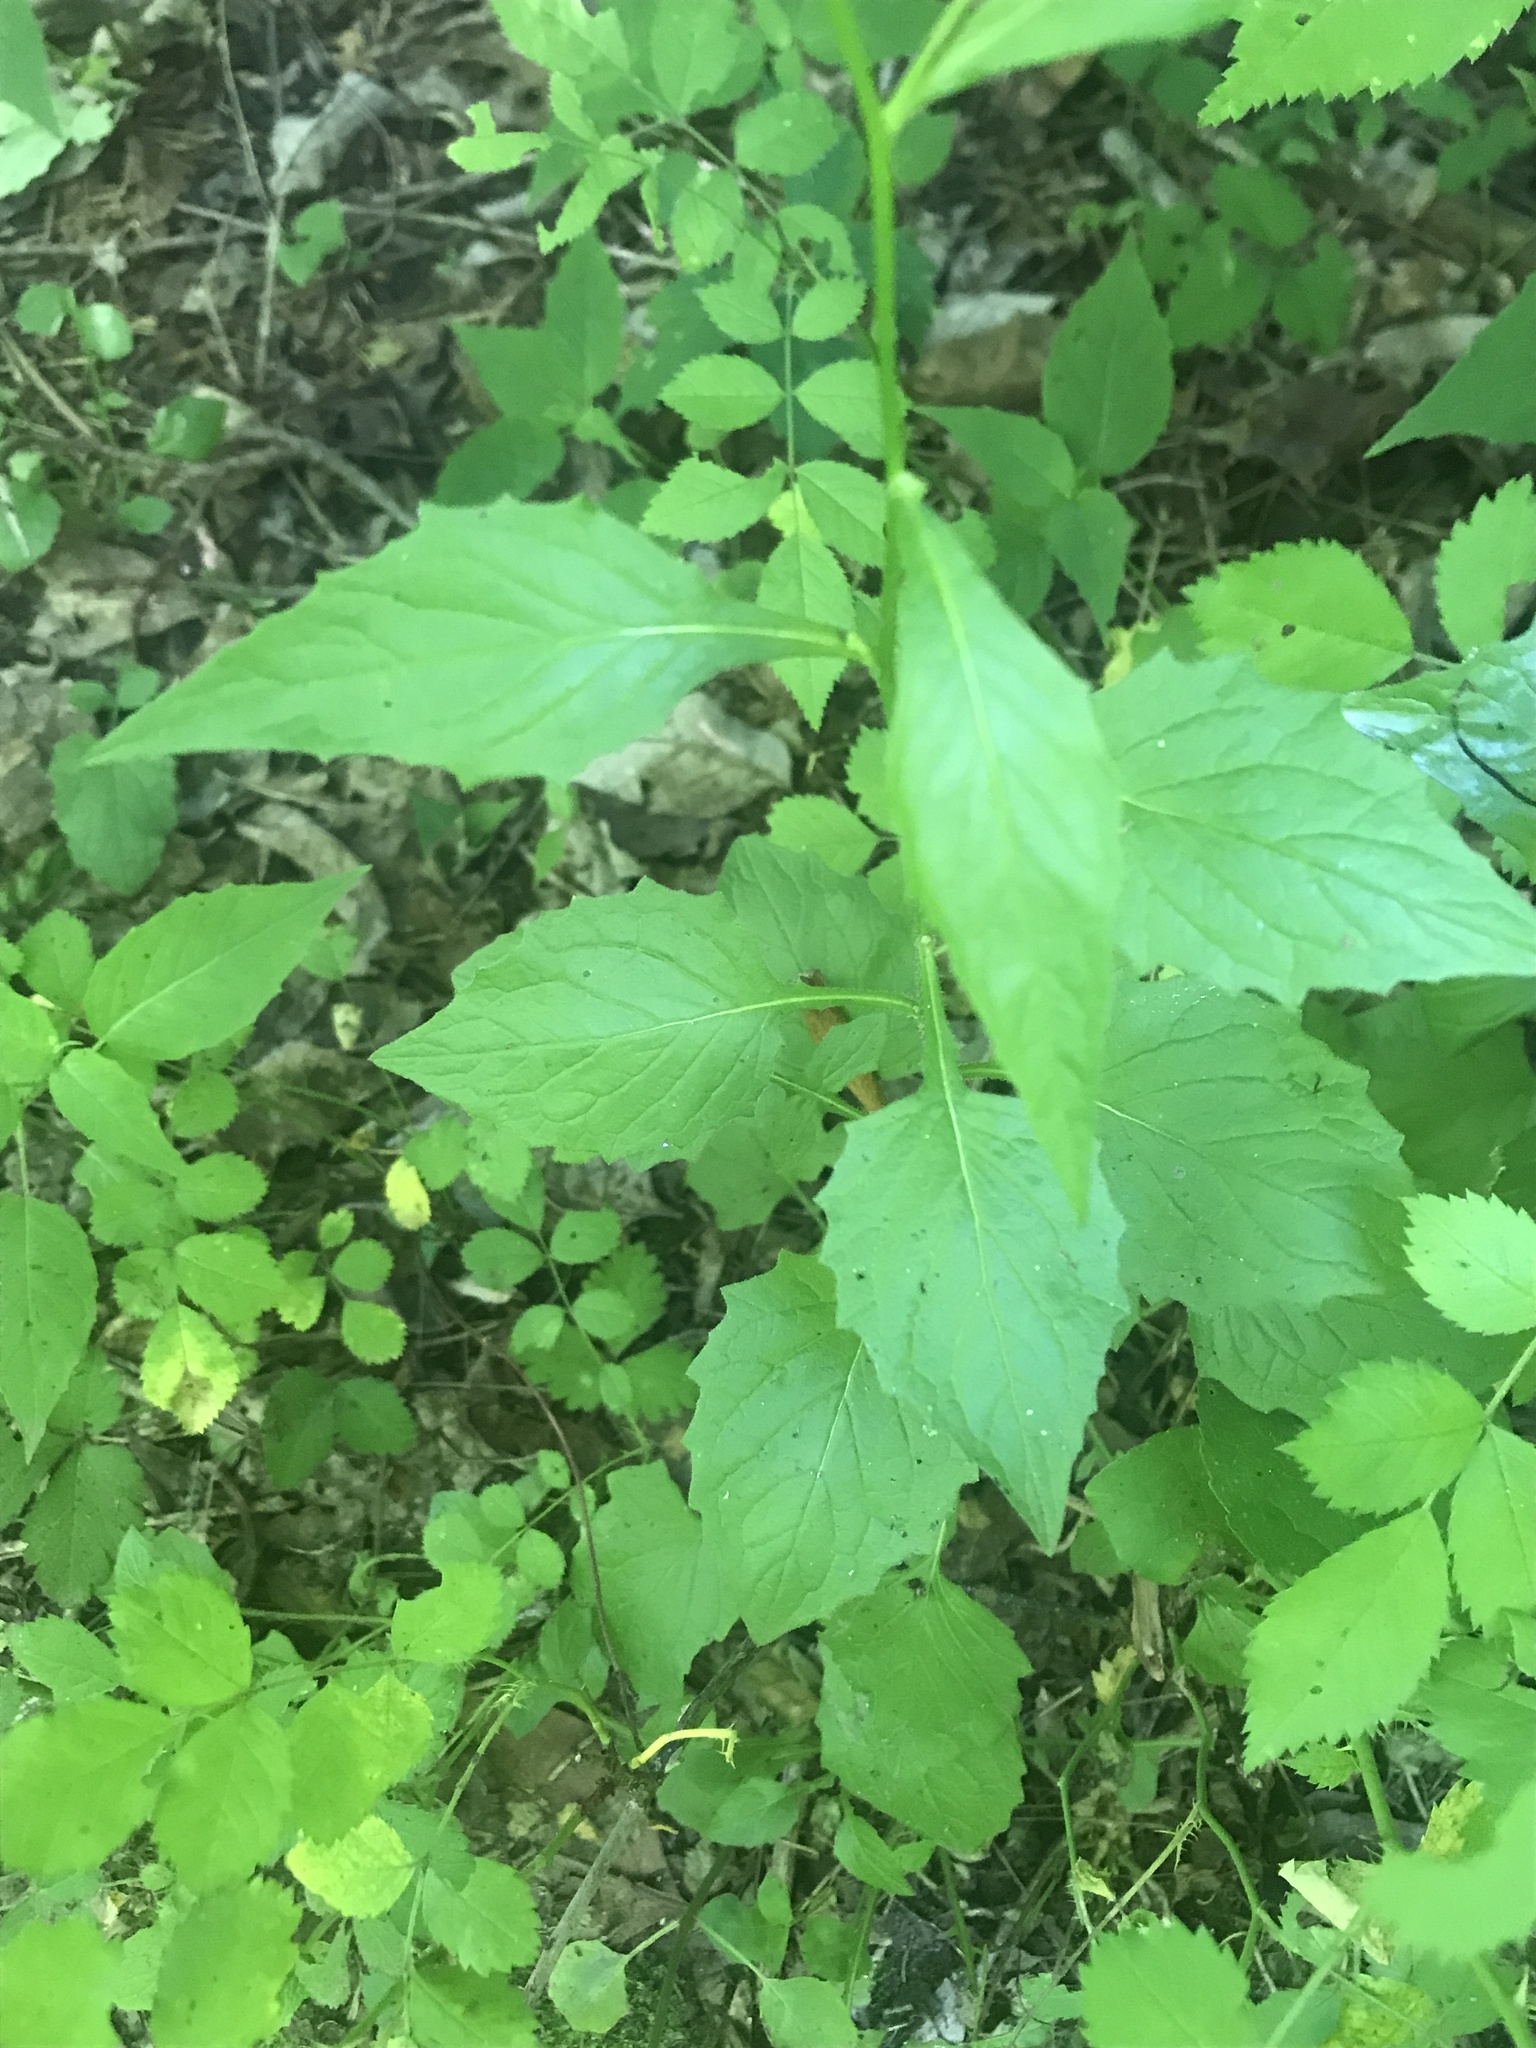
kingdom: Plantae
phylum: Tracheophyta
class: Magnoliopsida
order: Asterales
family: Asteraceae
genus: Lapsana
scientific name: Lapsana communis
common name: Nipplewort
